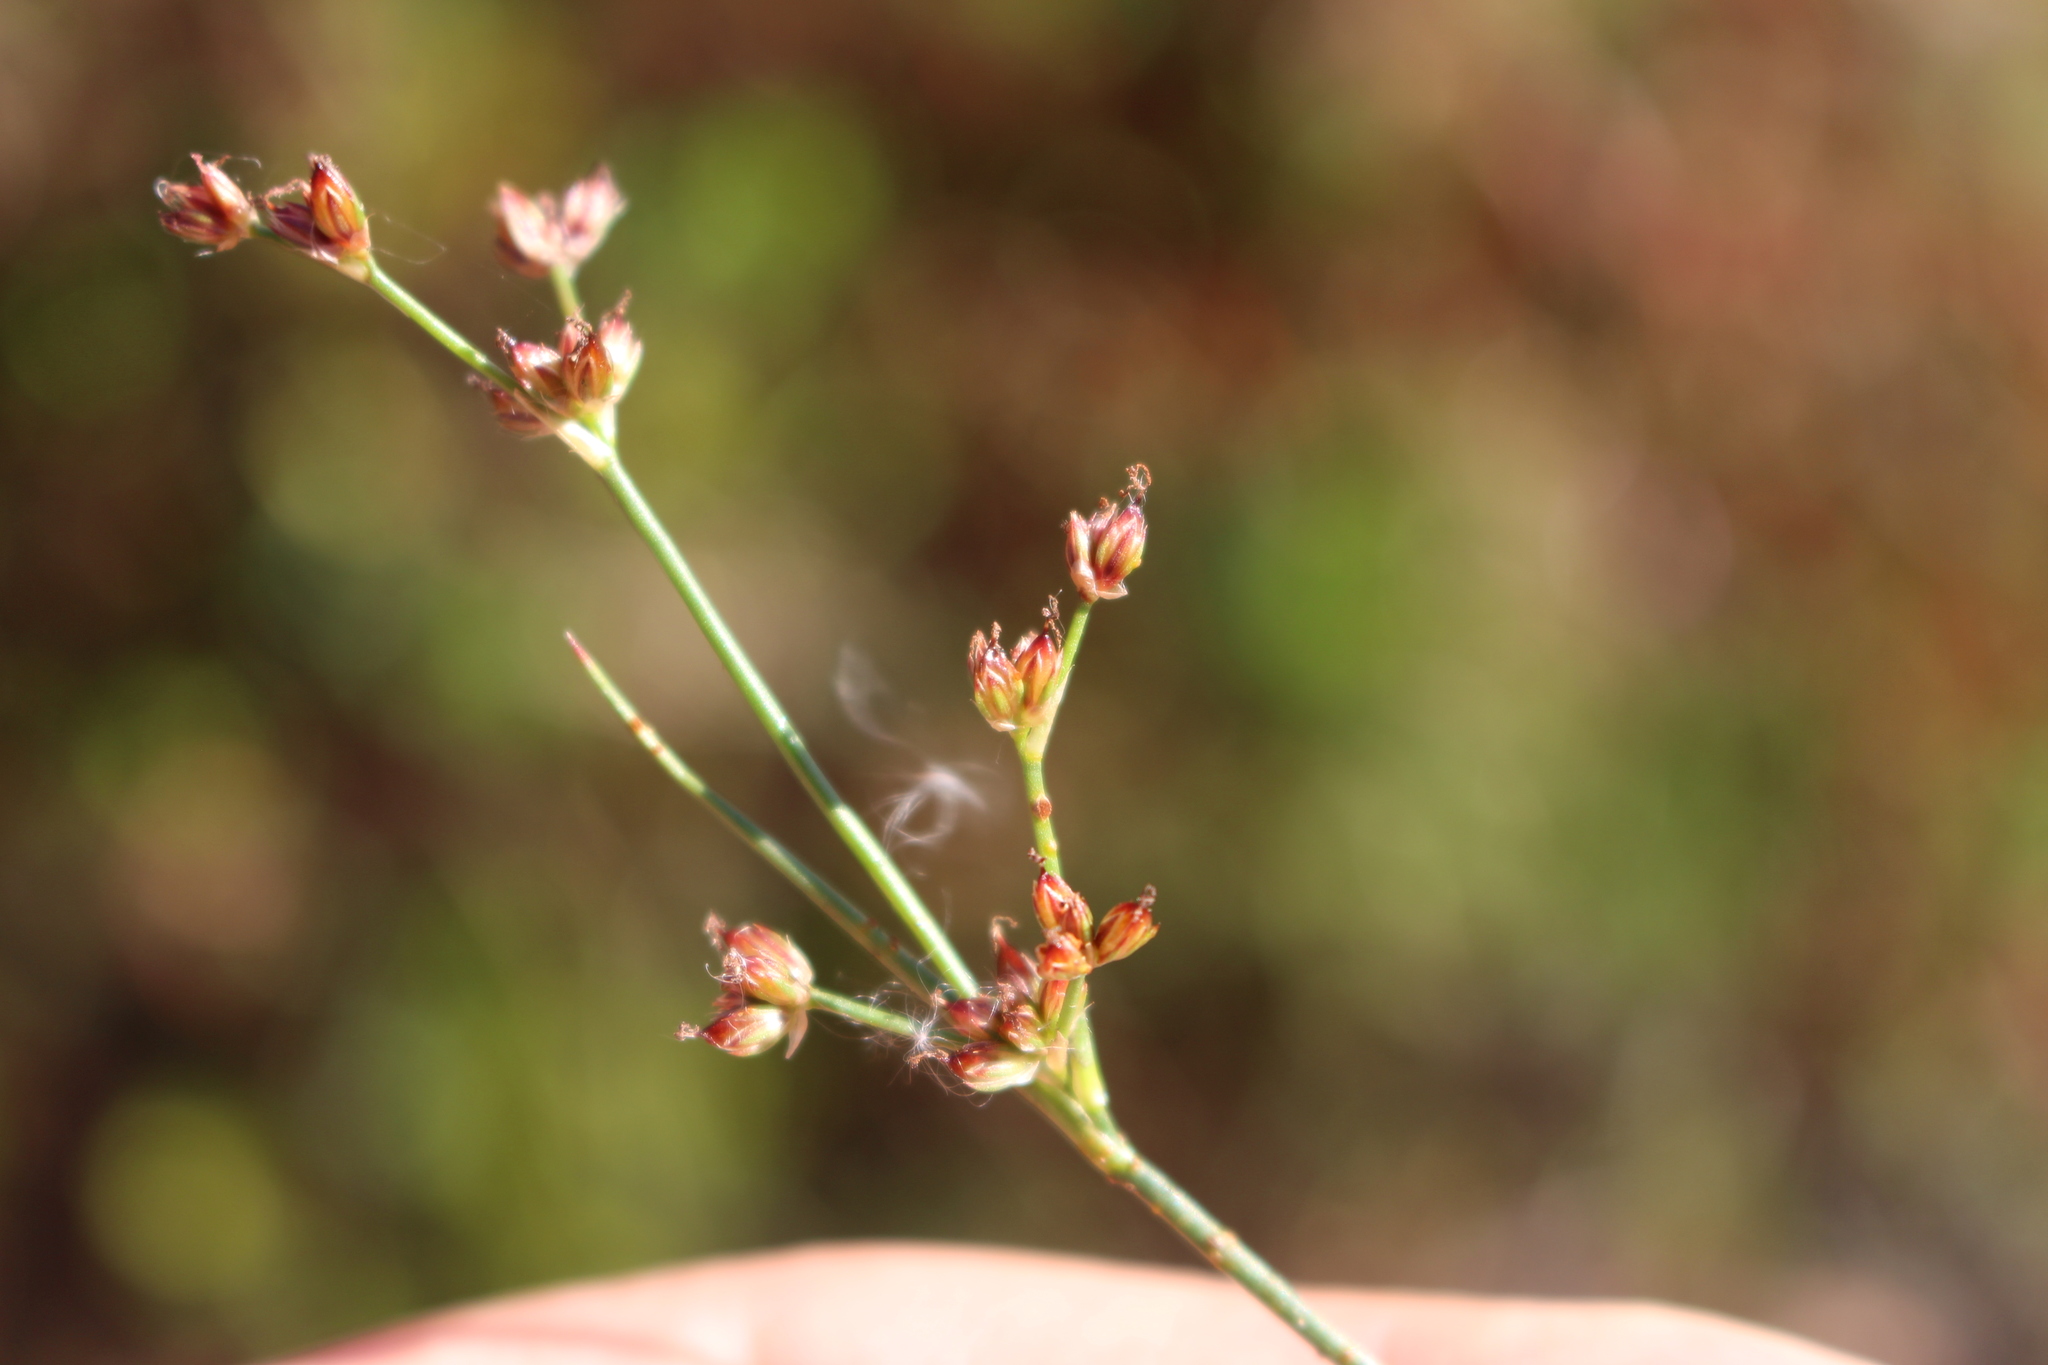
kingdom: Plantae
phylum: Tracheophyta
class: Liliopsida
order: Poales
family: Juncaceae
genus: Juncus
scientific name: Juncus articulatus
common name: Jointed rush
